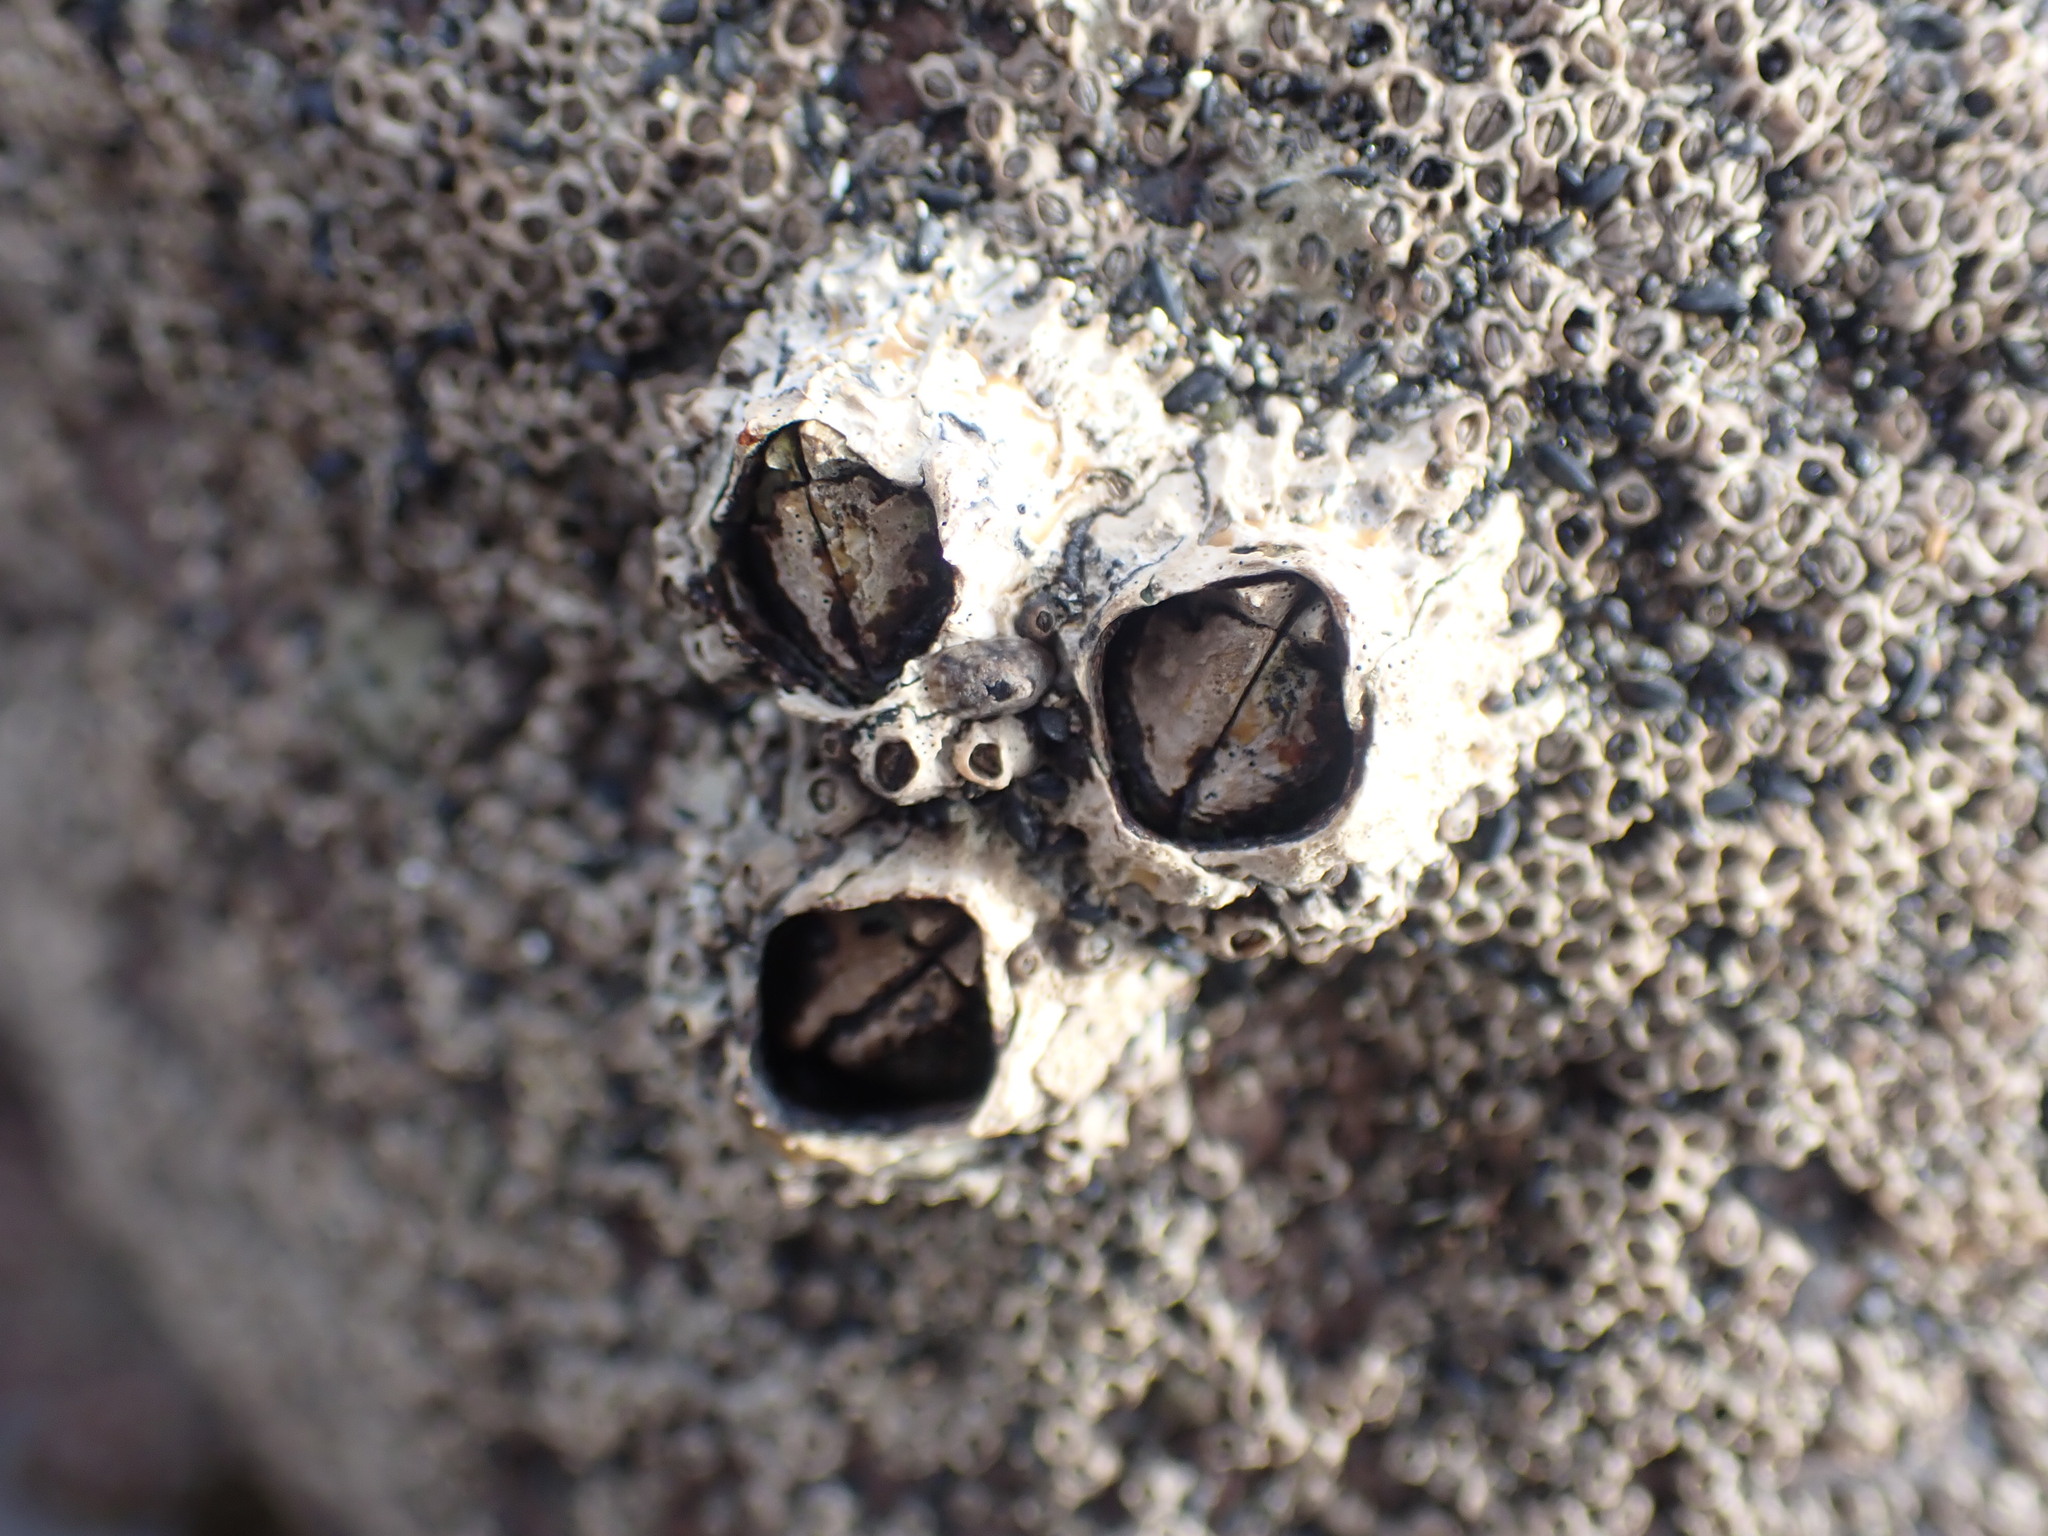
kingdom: Animalia
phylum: Arthropoda
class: Maxillopoda
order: Sessilia
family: Tetraclitidae
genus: Epopella
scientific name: Epopella plicata
